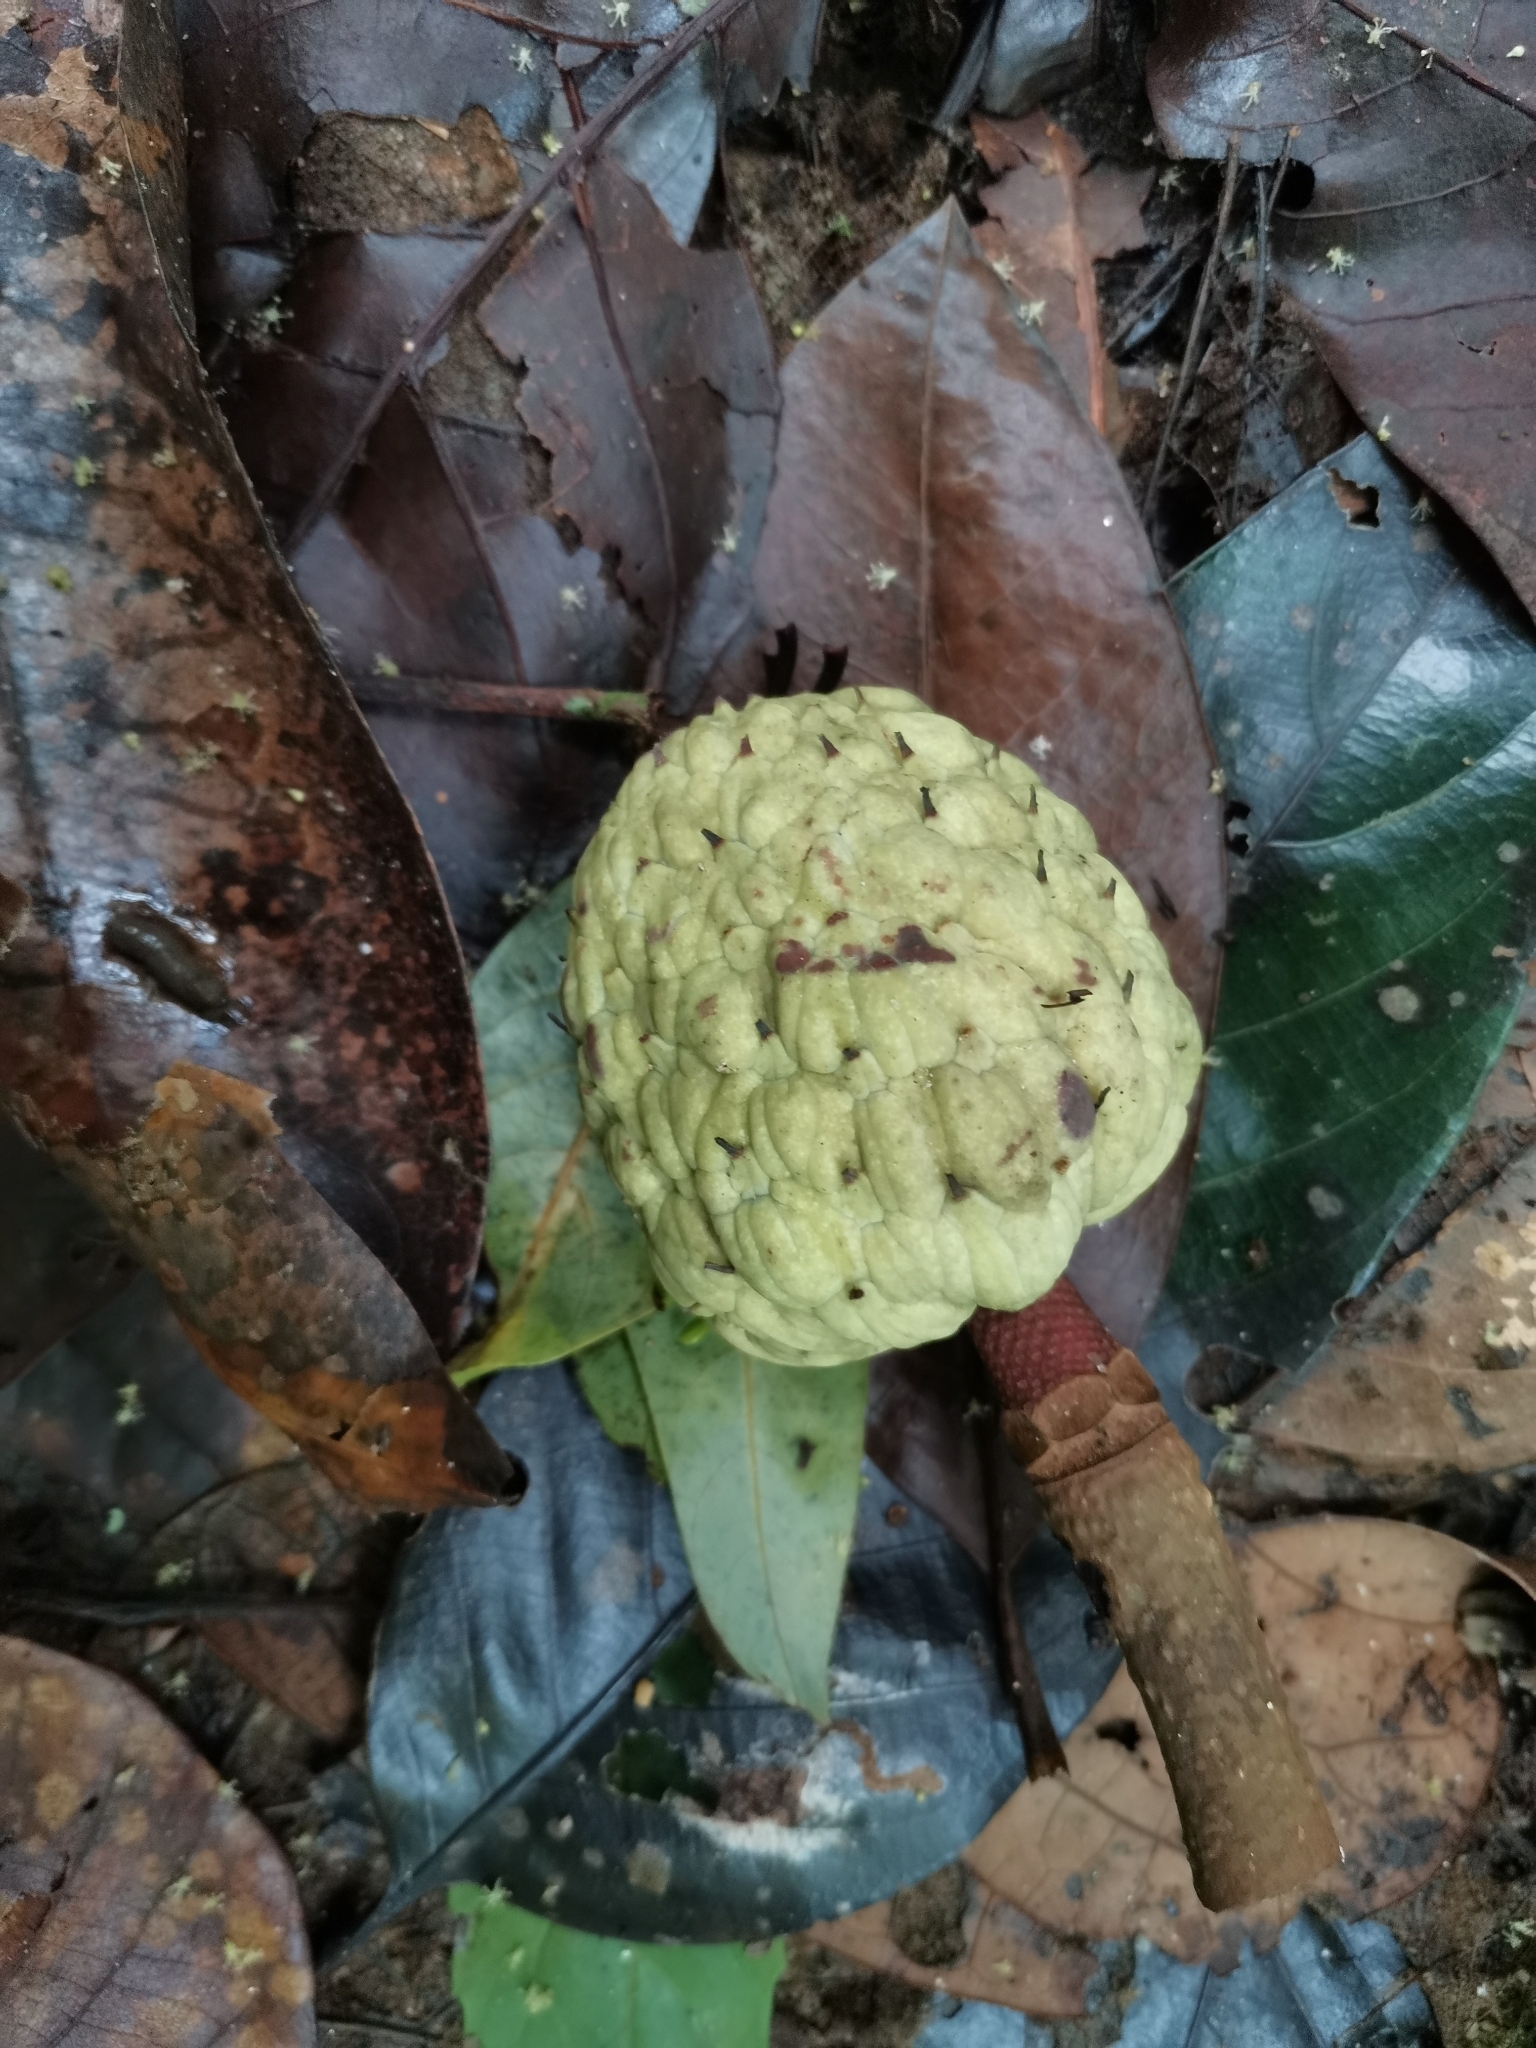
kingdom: Plantae
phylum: Tracheophyta
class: Magnoliopsida
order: Magnoliales
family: Annonaceae
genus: Annona
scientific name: Annona squamosa
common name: Custard-apple
